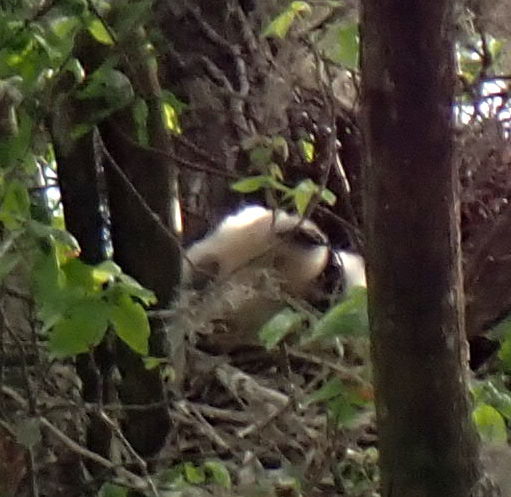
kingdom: Animalia
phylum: Chordata
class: Aves
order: Suliformes
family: Anhingidae
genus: Anhinga
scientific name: Anhinga anhinga
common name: Anhinga
